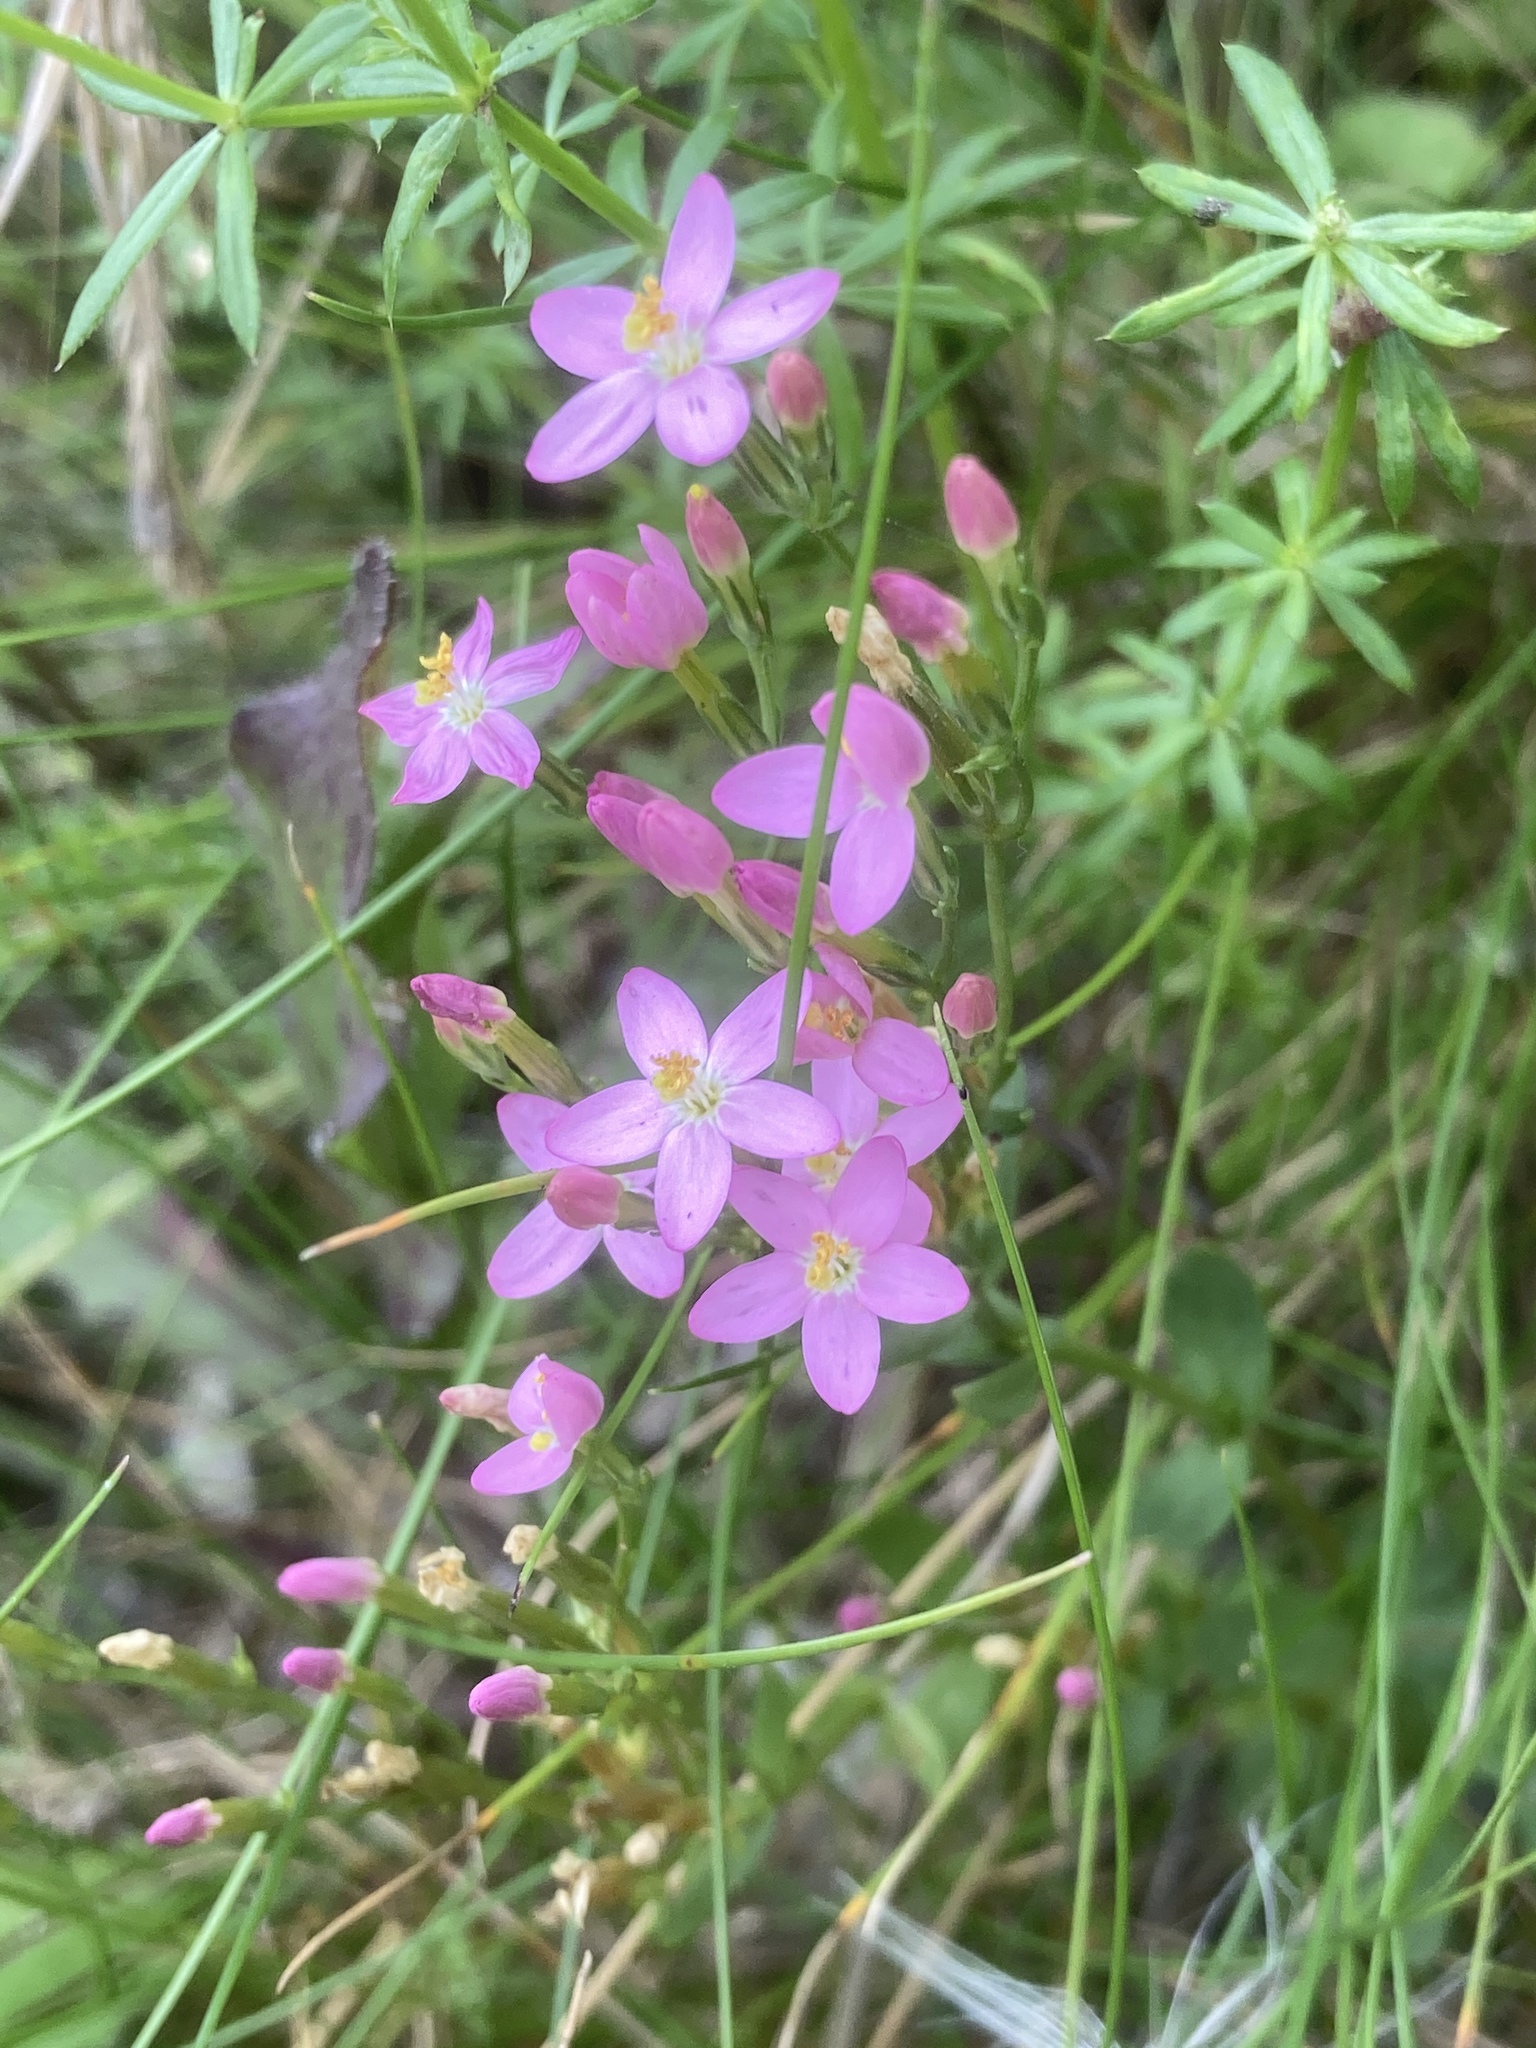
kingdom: Plantae
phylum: Tracheophyta
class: Magnoliopsida
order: Gentianales
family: Gentianaceae
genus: Centaurium
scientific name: Centaurium erythraea
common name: Common centaury
